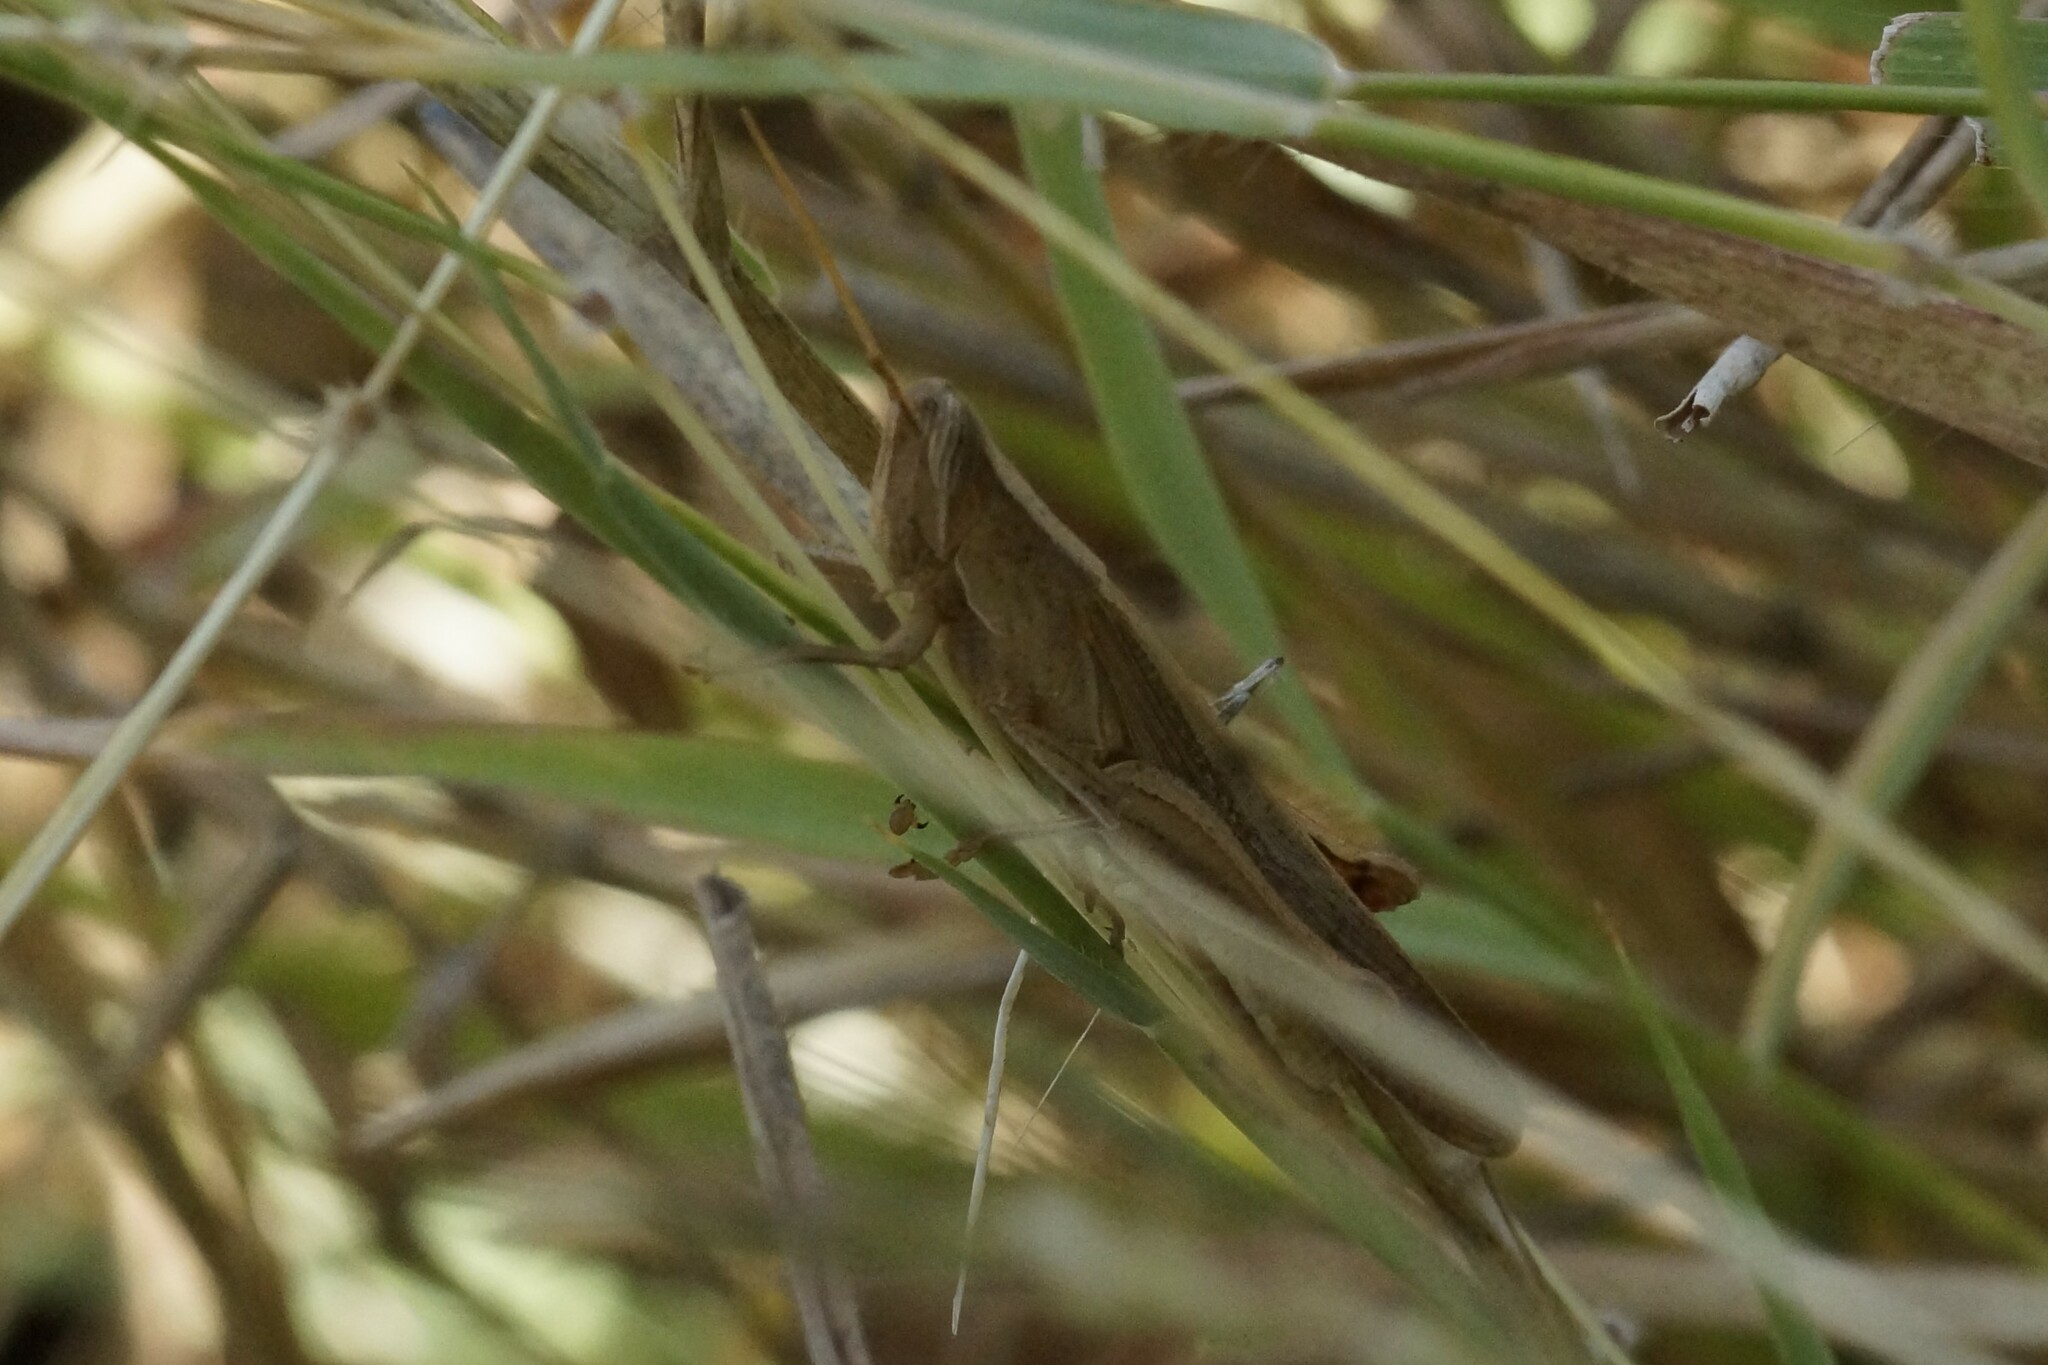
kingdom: Animalia
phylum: Arthropoda
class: Insecta
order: Orthoptera
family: Acrididae
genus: Stenocatantops
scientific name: Stenocatantops vitripennis
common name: Light-brown sharptail
